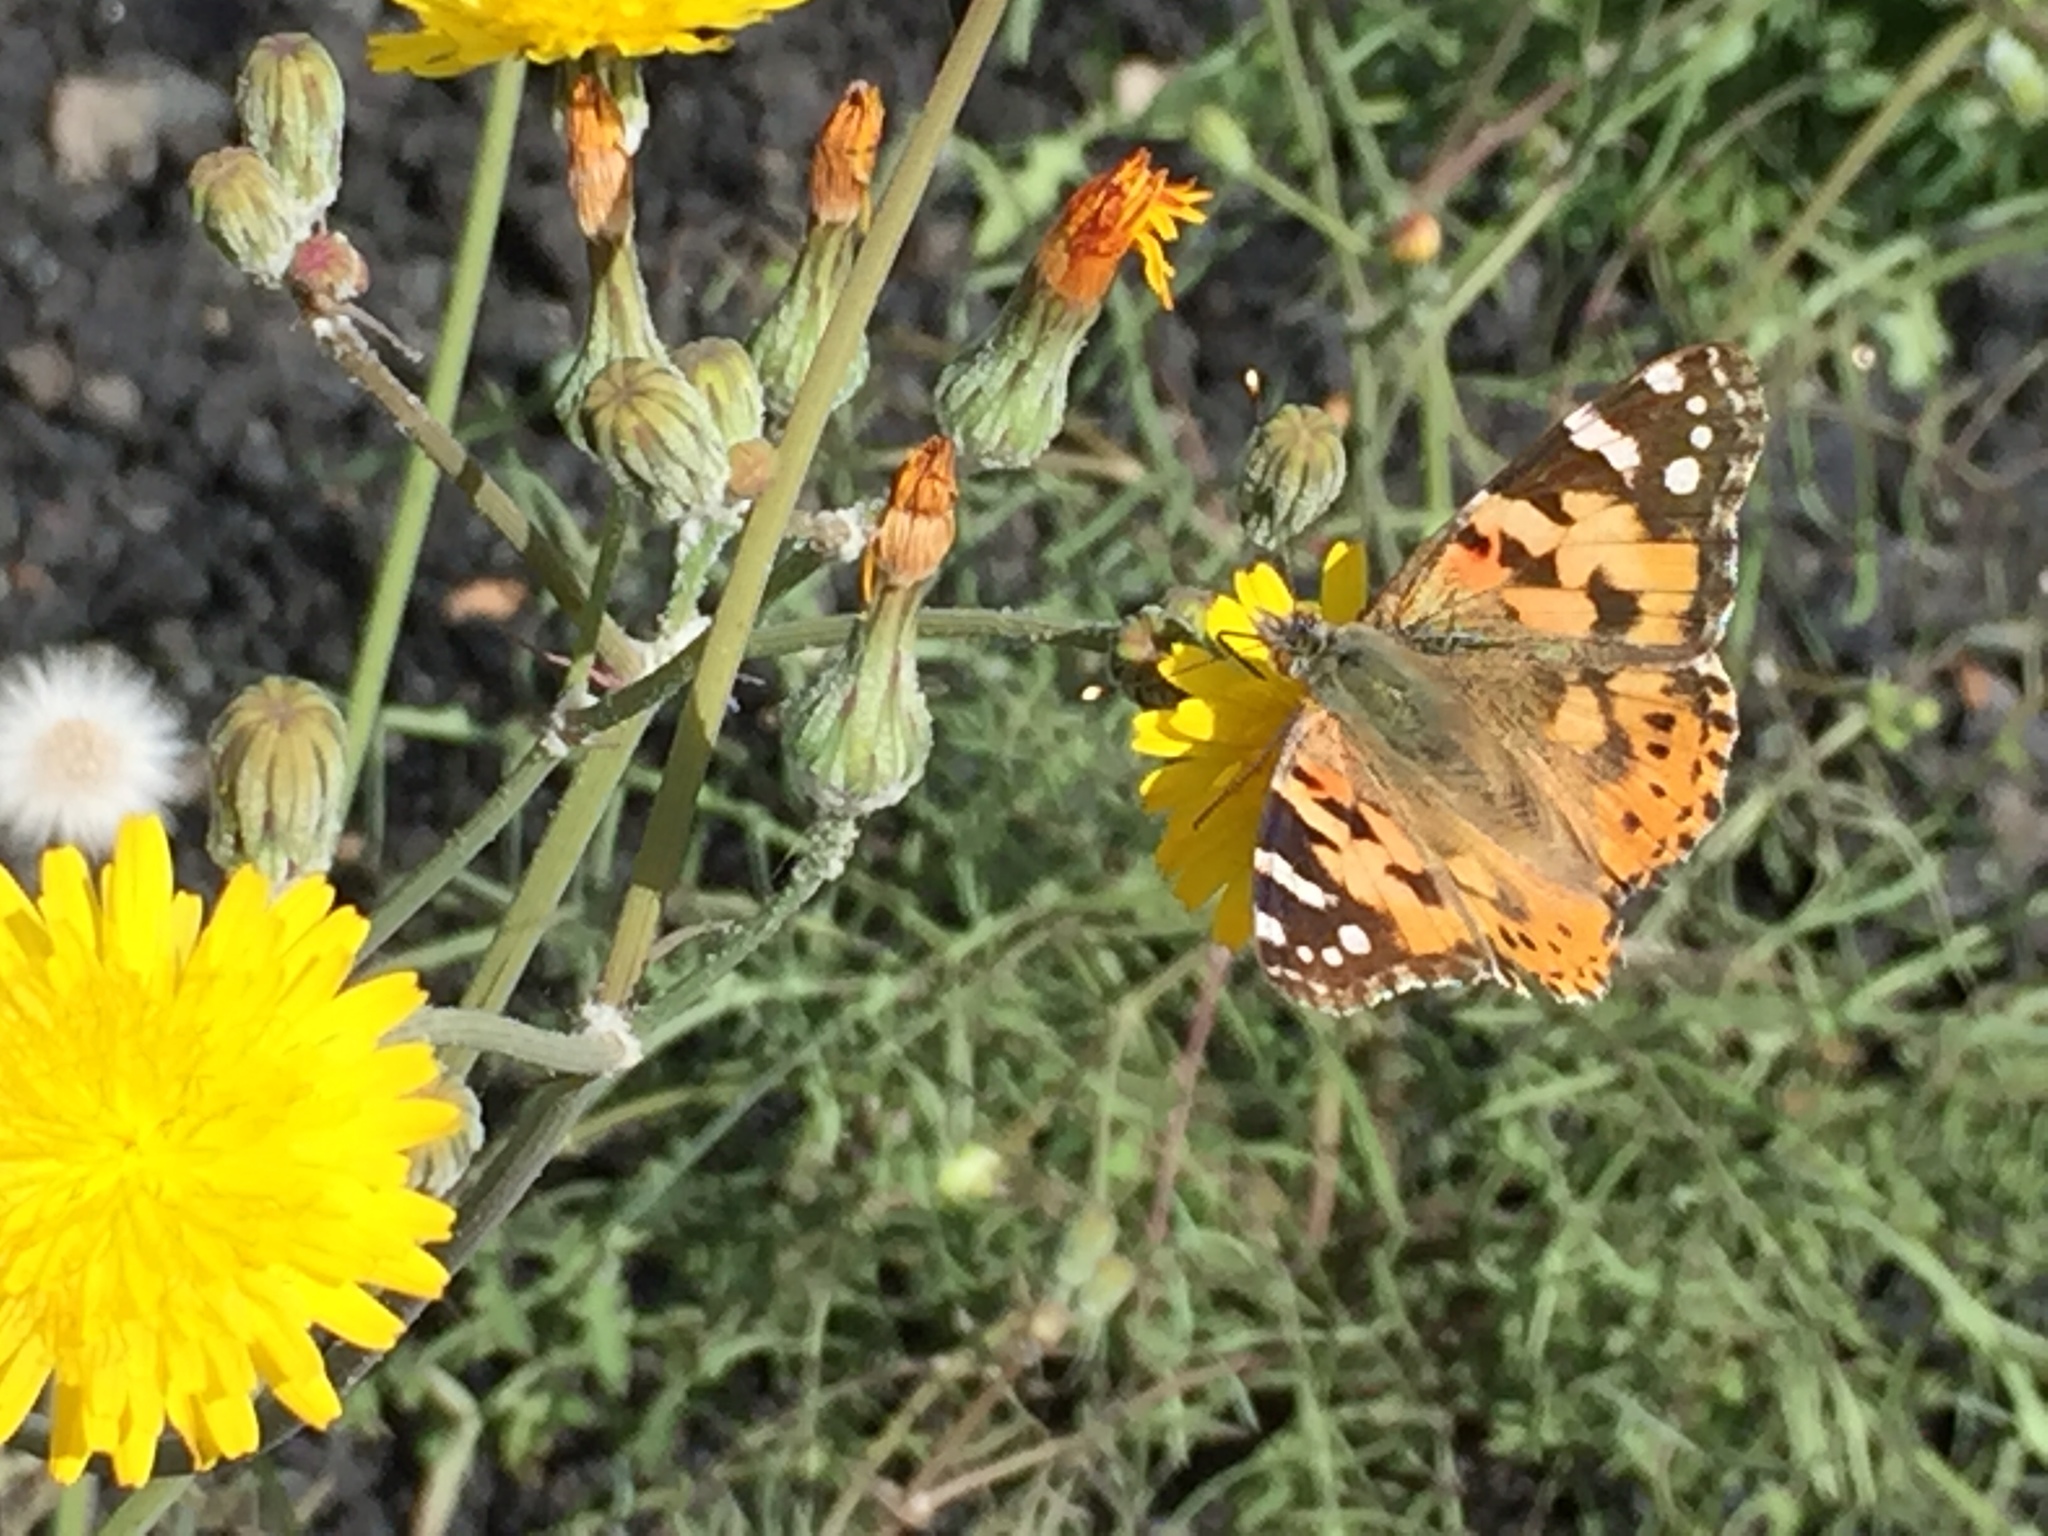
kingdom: Animalia
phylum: Arthropoda
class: Insecta
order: Lepidoptera
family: Nymphalidae
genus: Vanessa
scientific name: Vanessa cardui
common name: Painted lady
